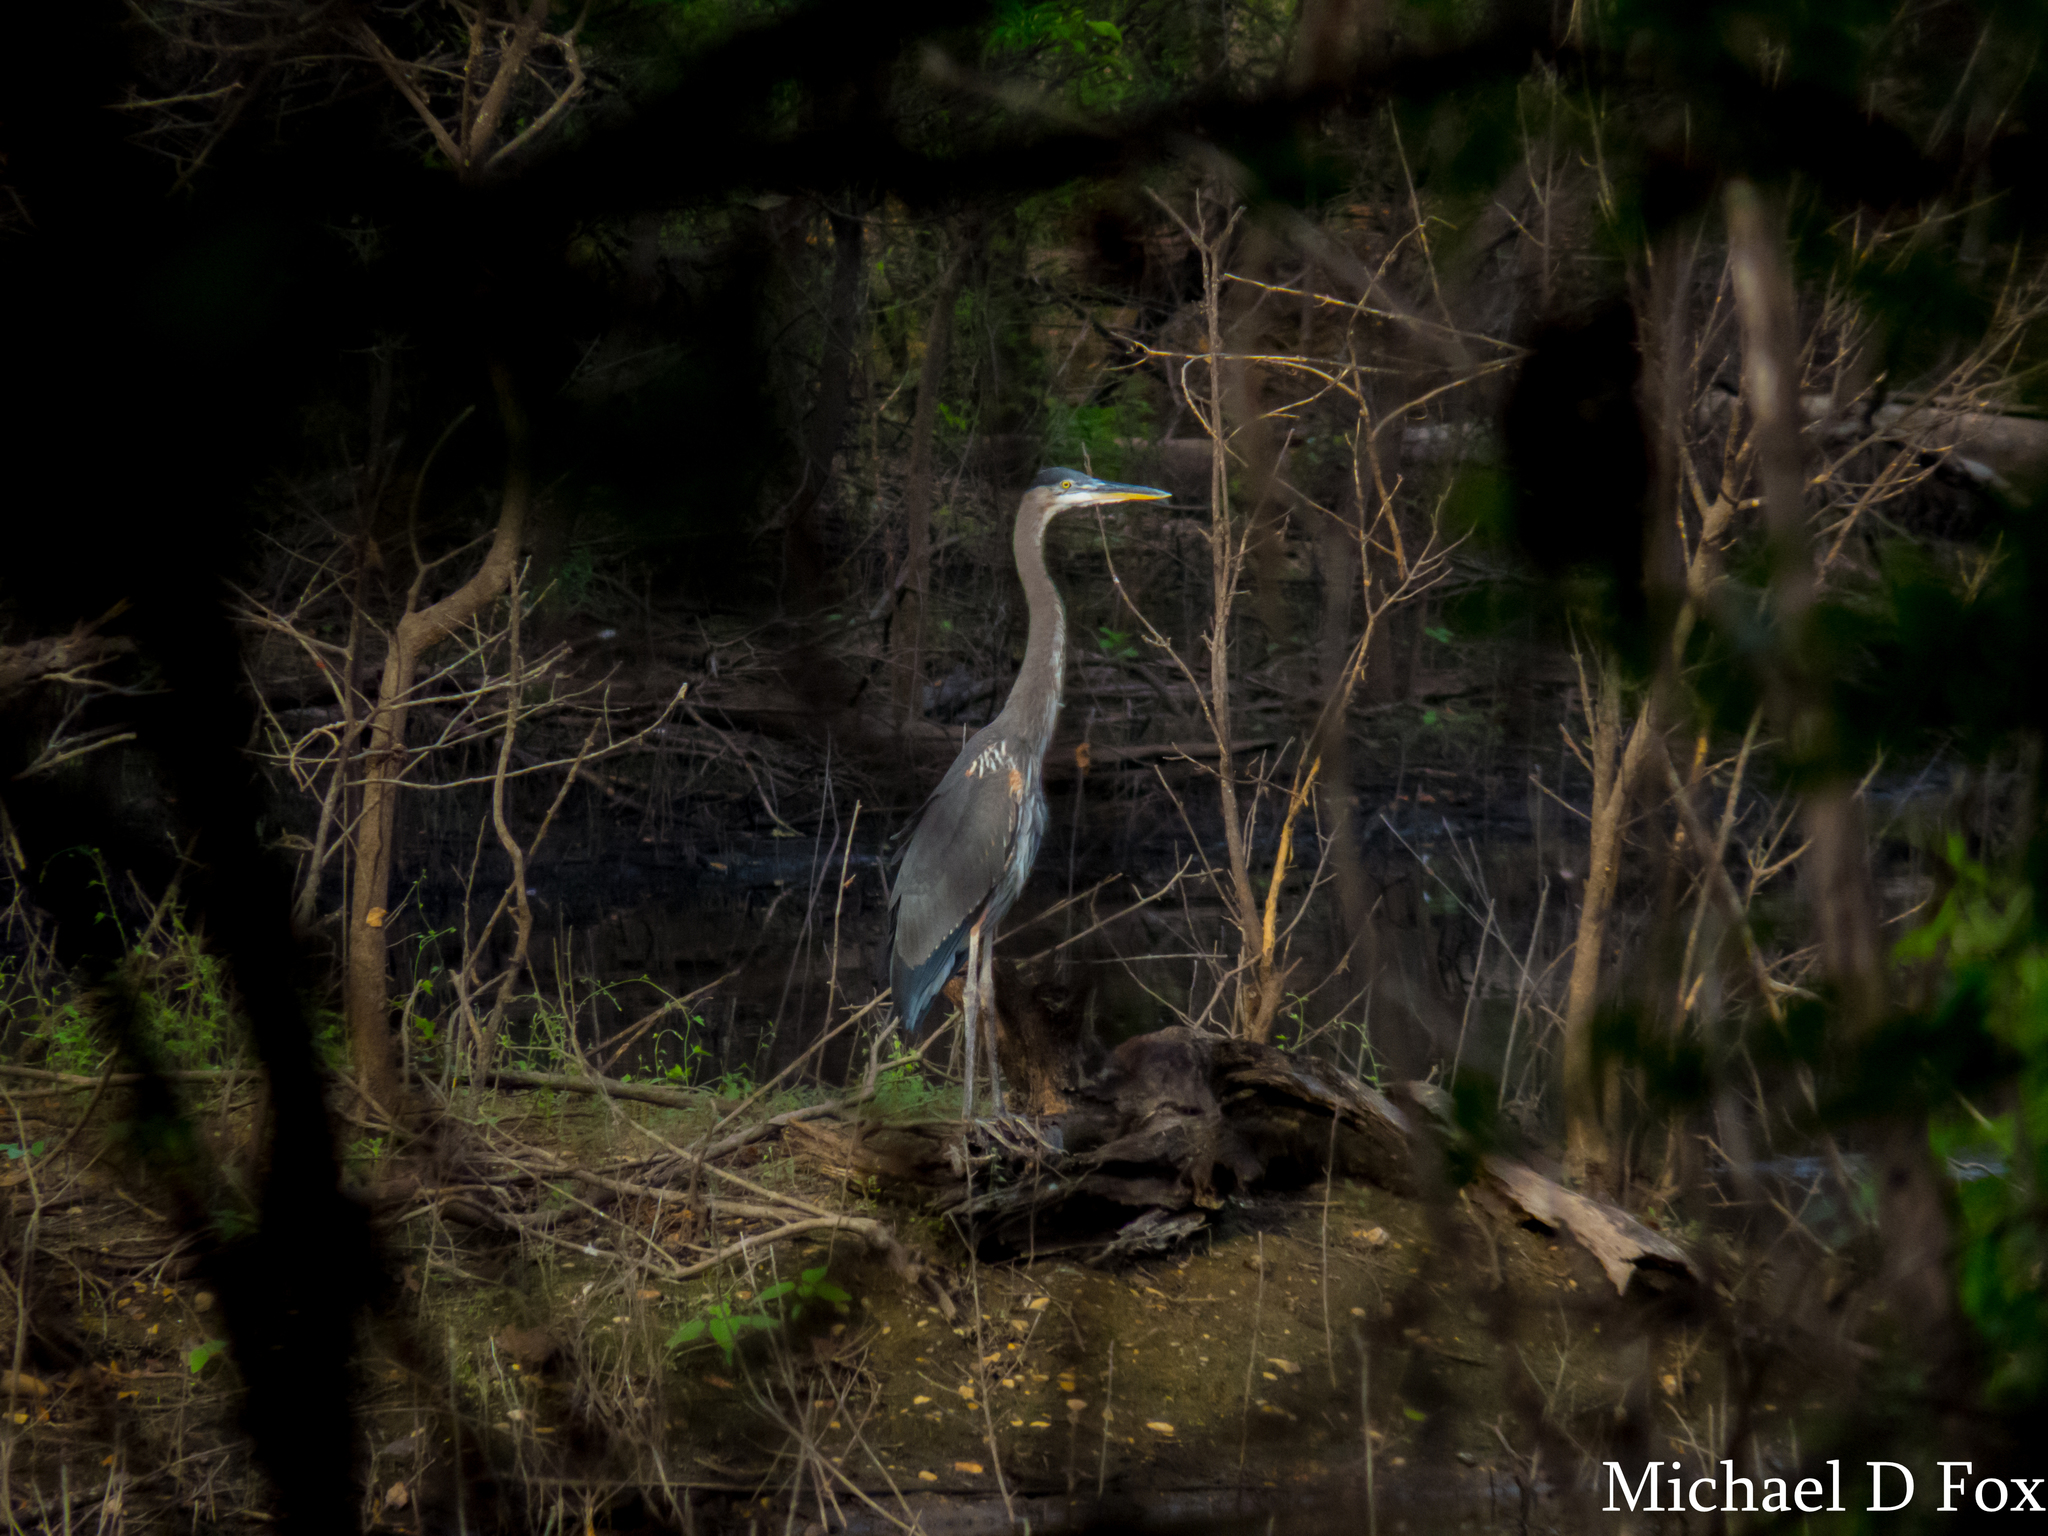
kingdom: Animalia
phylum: Chordata
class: Aves
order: Pelecaniformes
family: Ardeidae
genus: Ardea
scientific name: Ardea herodias
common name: Great blue heron
